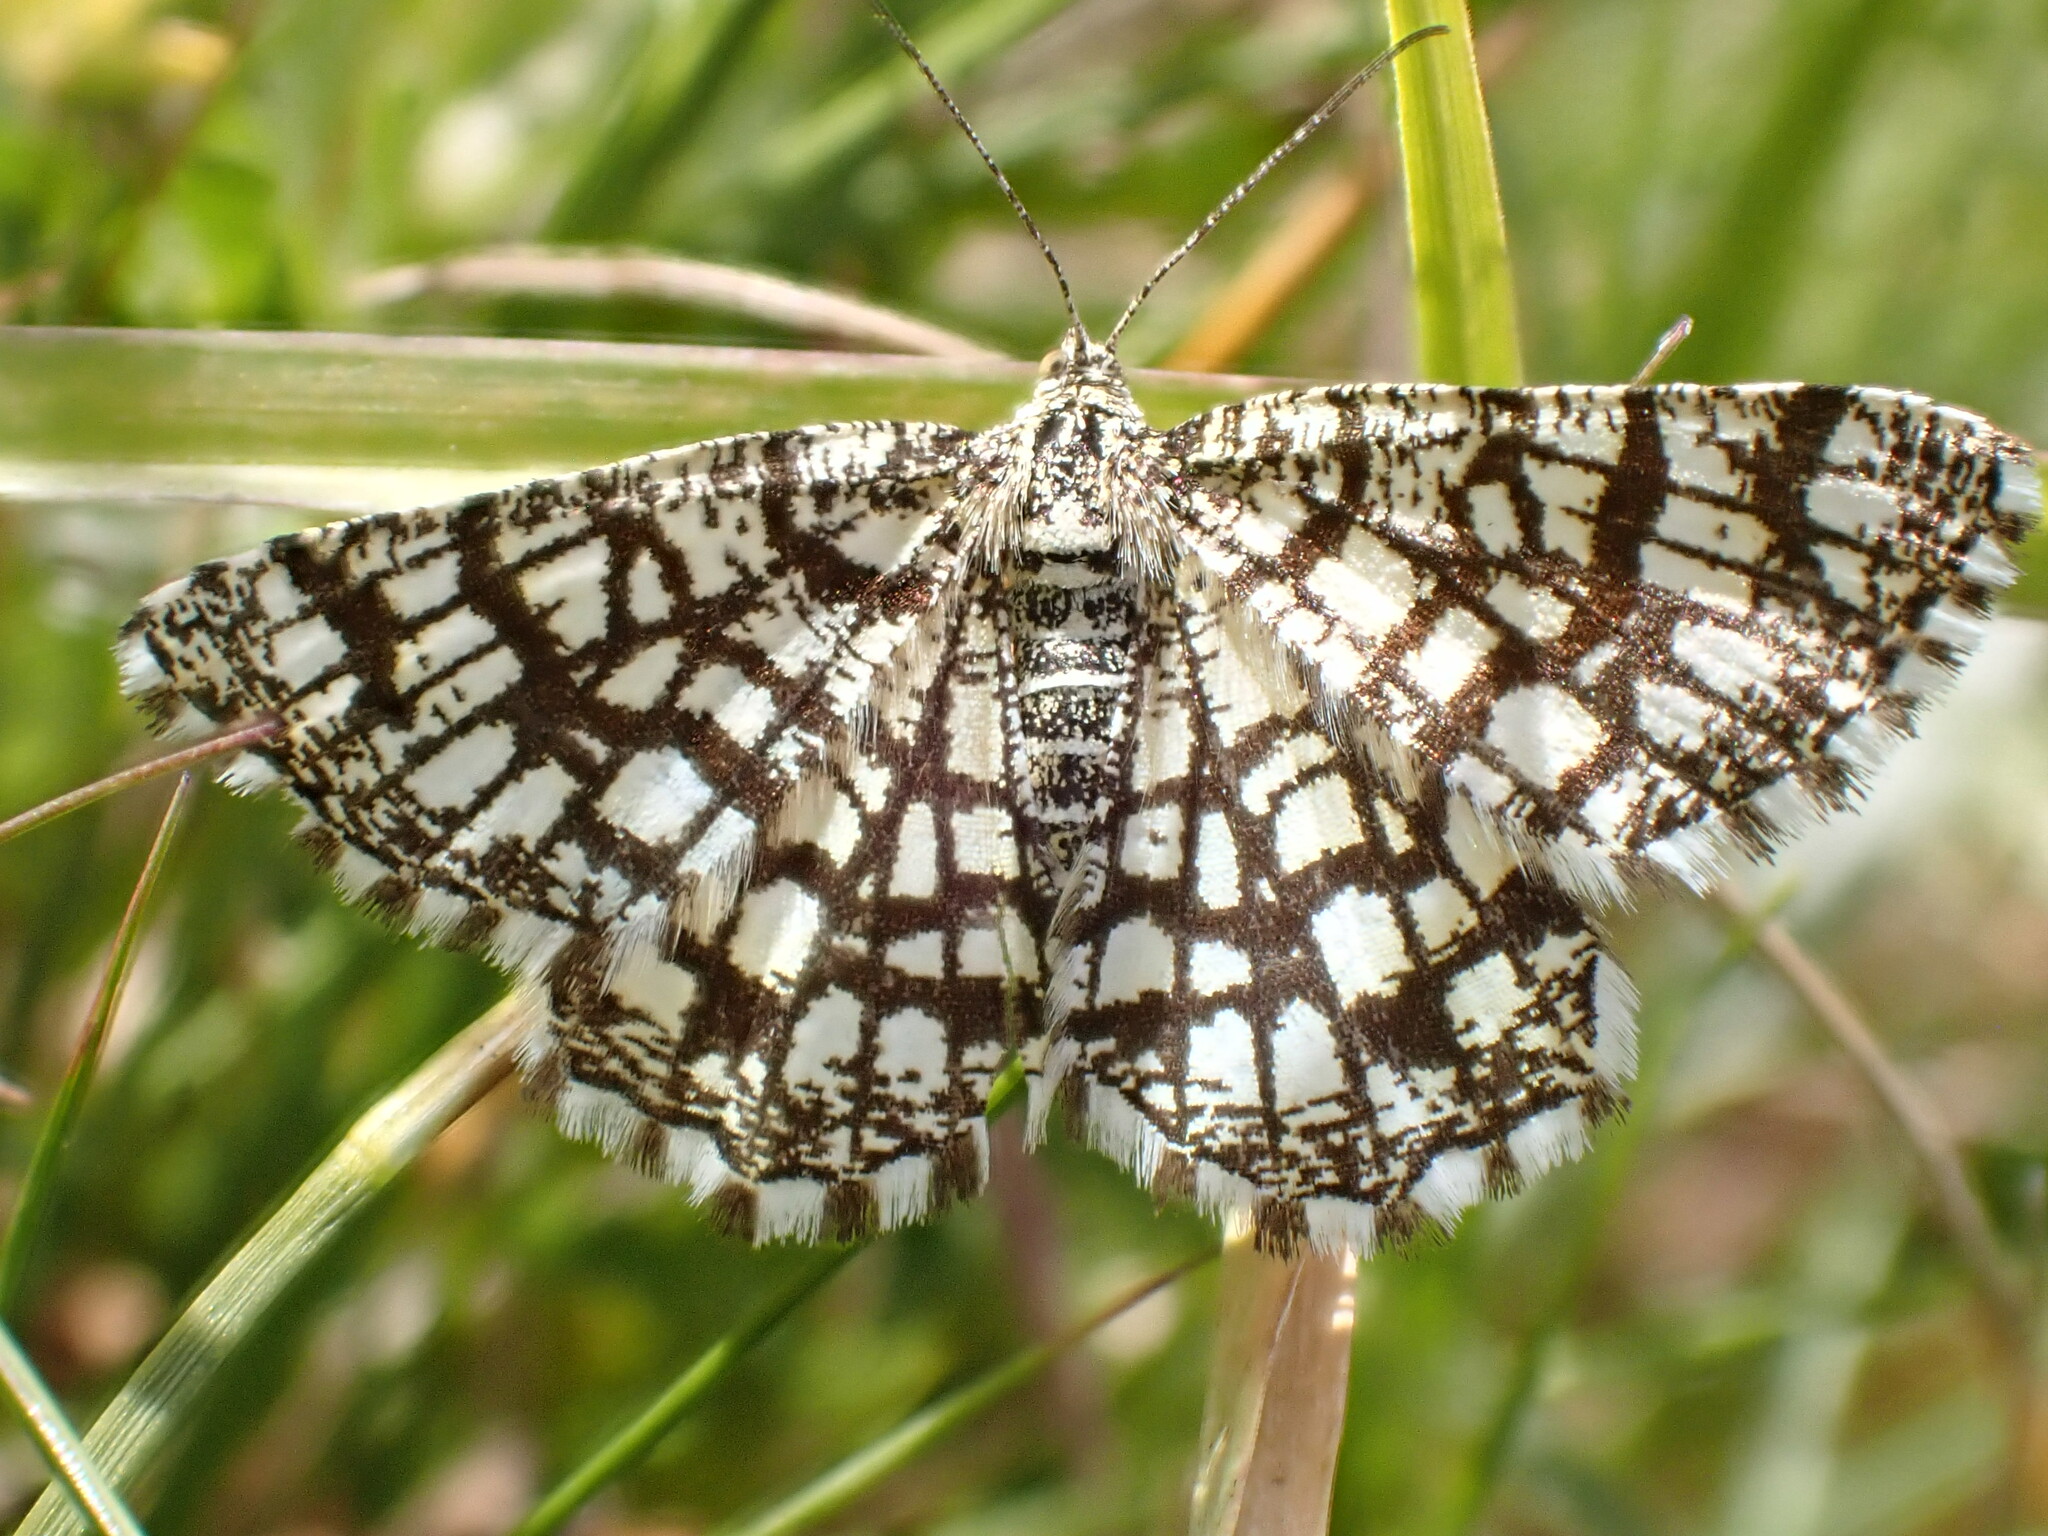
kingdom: Animalia
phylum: Arthropoda
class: Insecta
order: Lepidoptera
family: Geometridae
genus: Chiasmia
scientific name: Chiasmia clathrata
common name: Latticed heath
